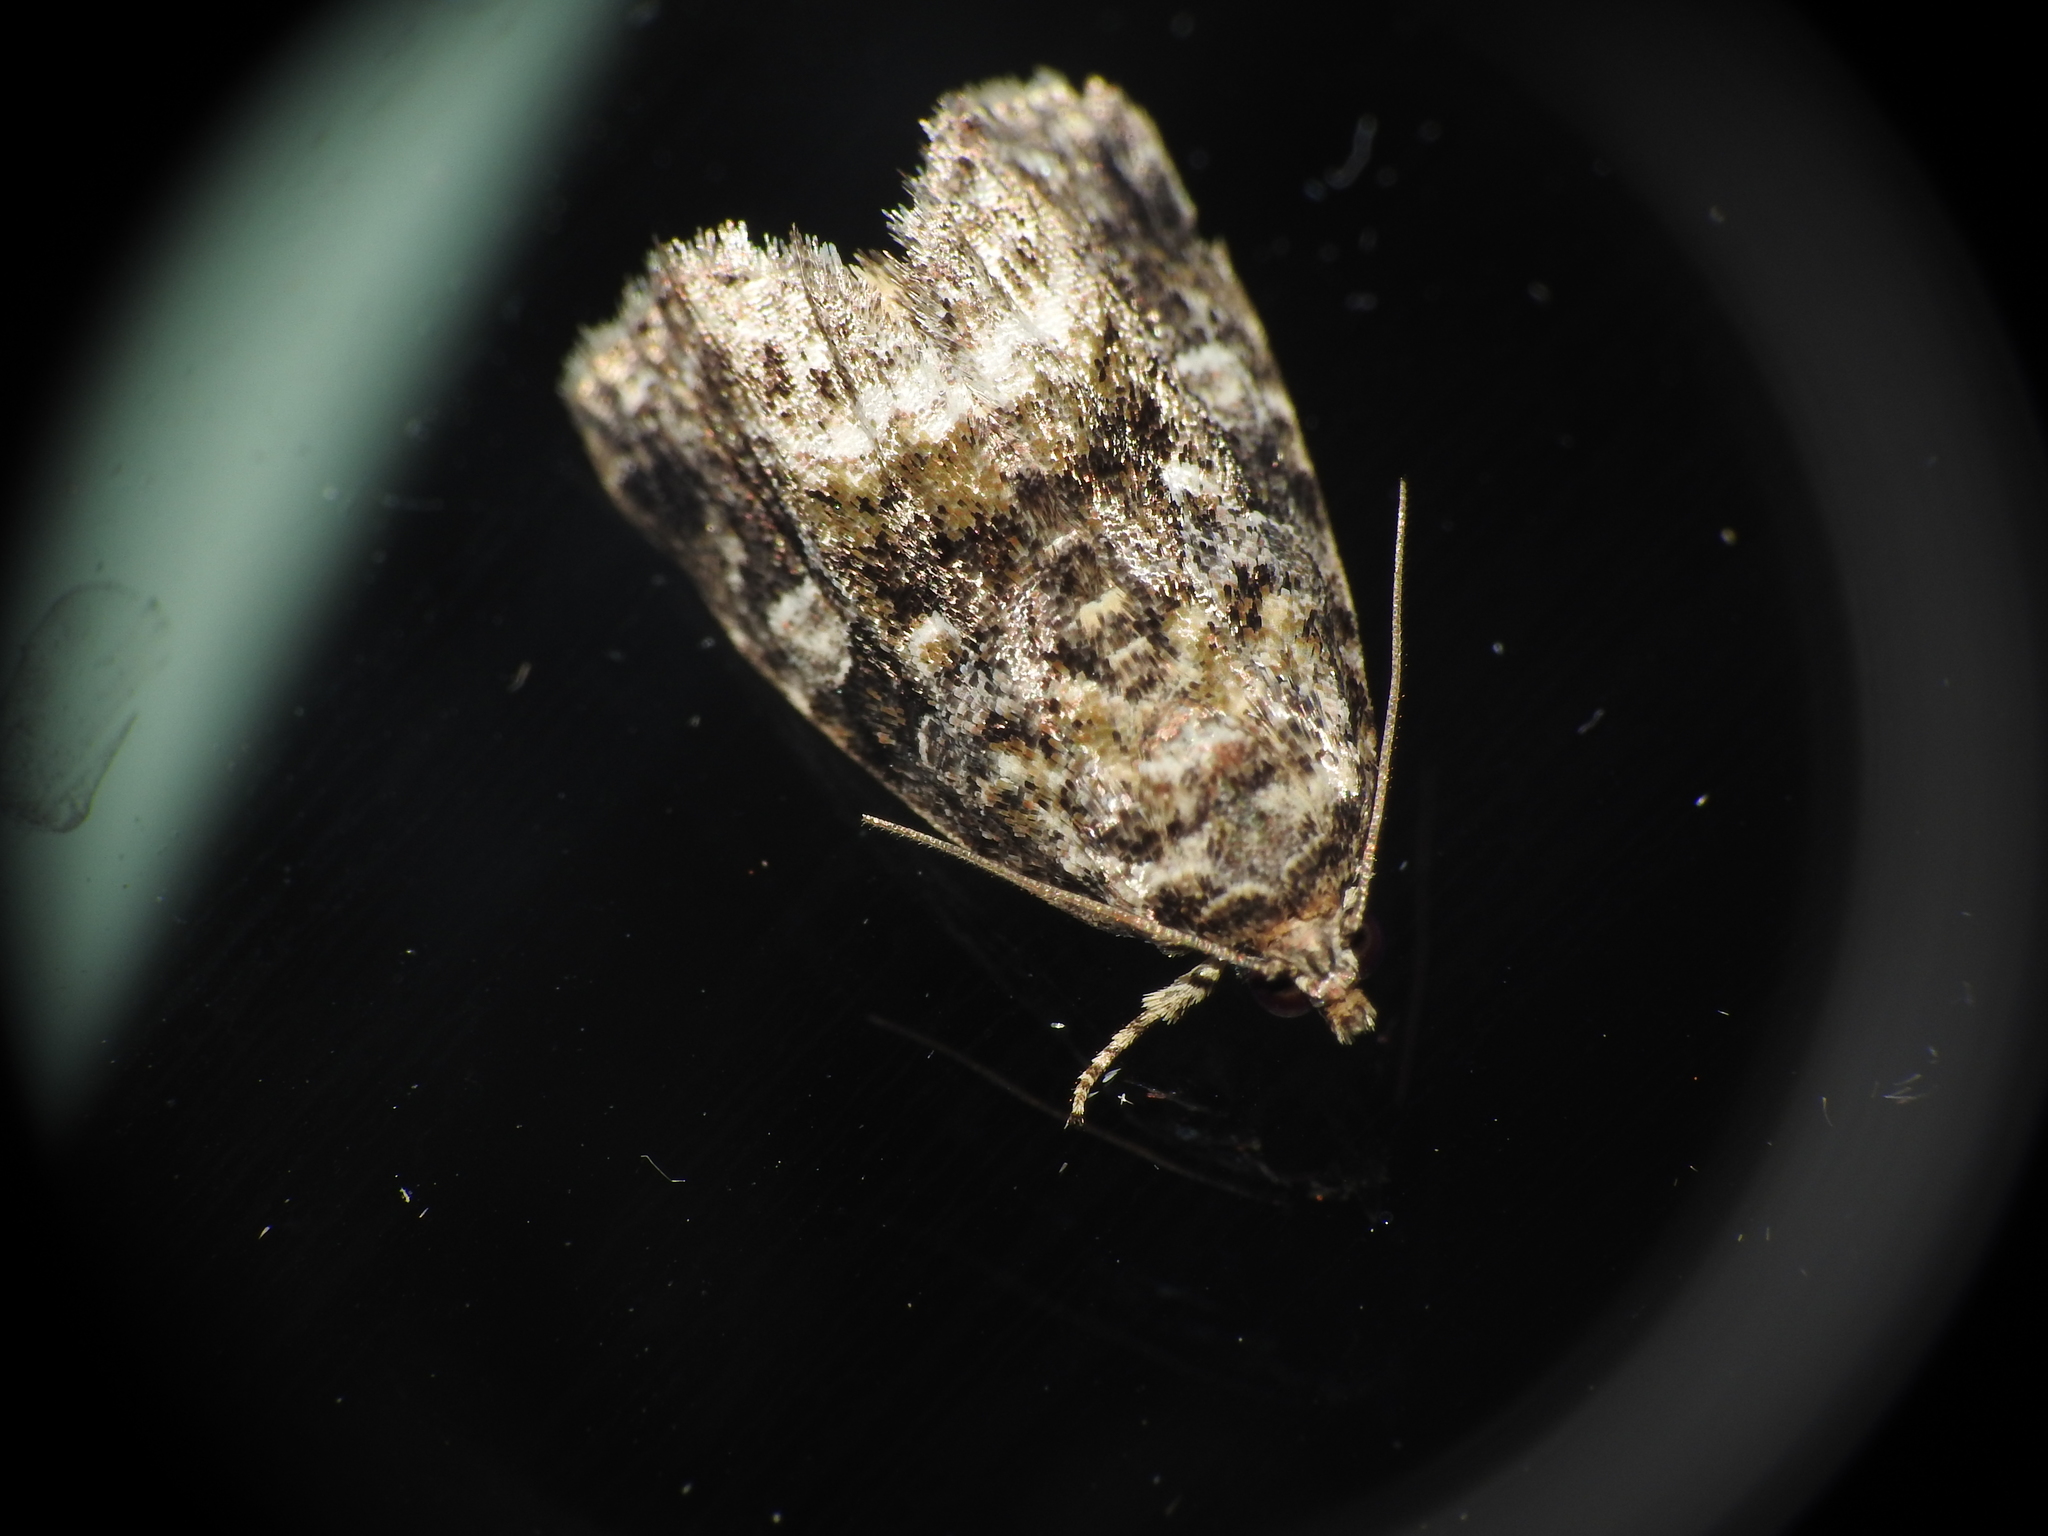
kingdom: Animalia
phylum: Arthropoda
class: Insecta
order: Lepidoptera
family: Noctuidae
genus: Protodeltote
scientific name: Protodeltote muscosula
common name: Large mossy glyph
